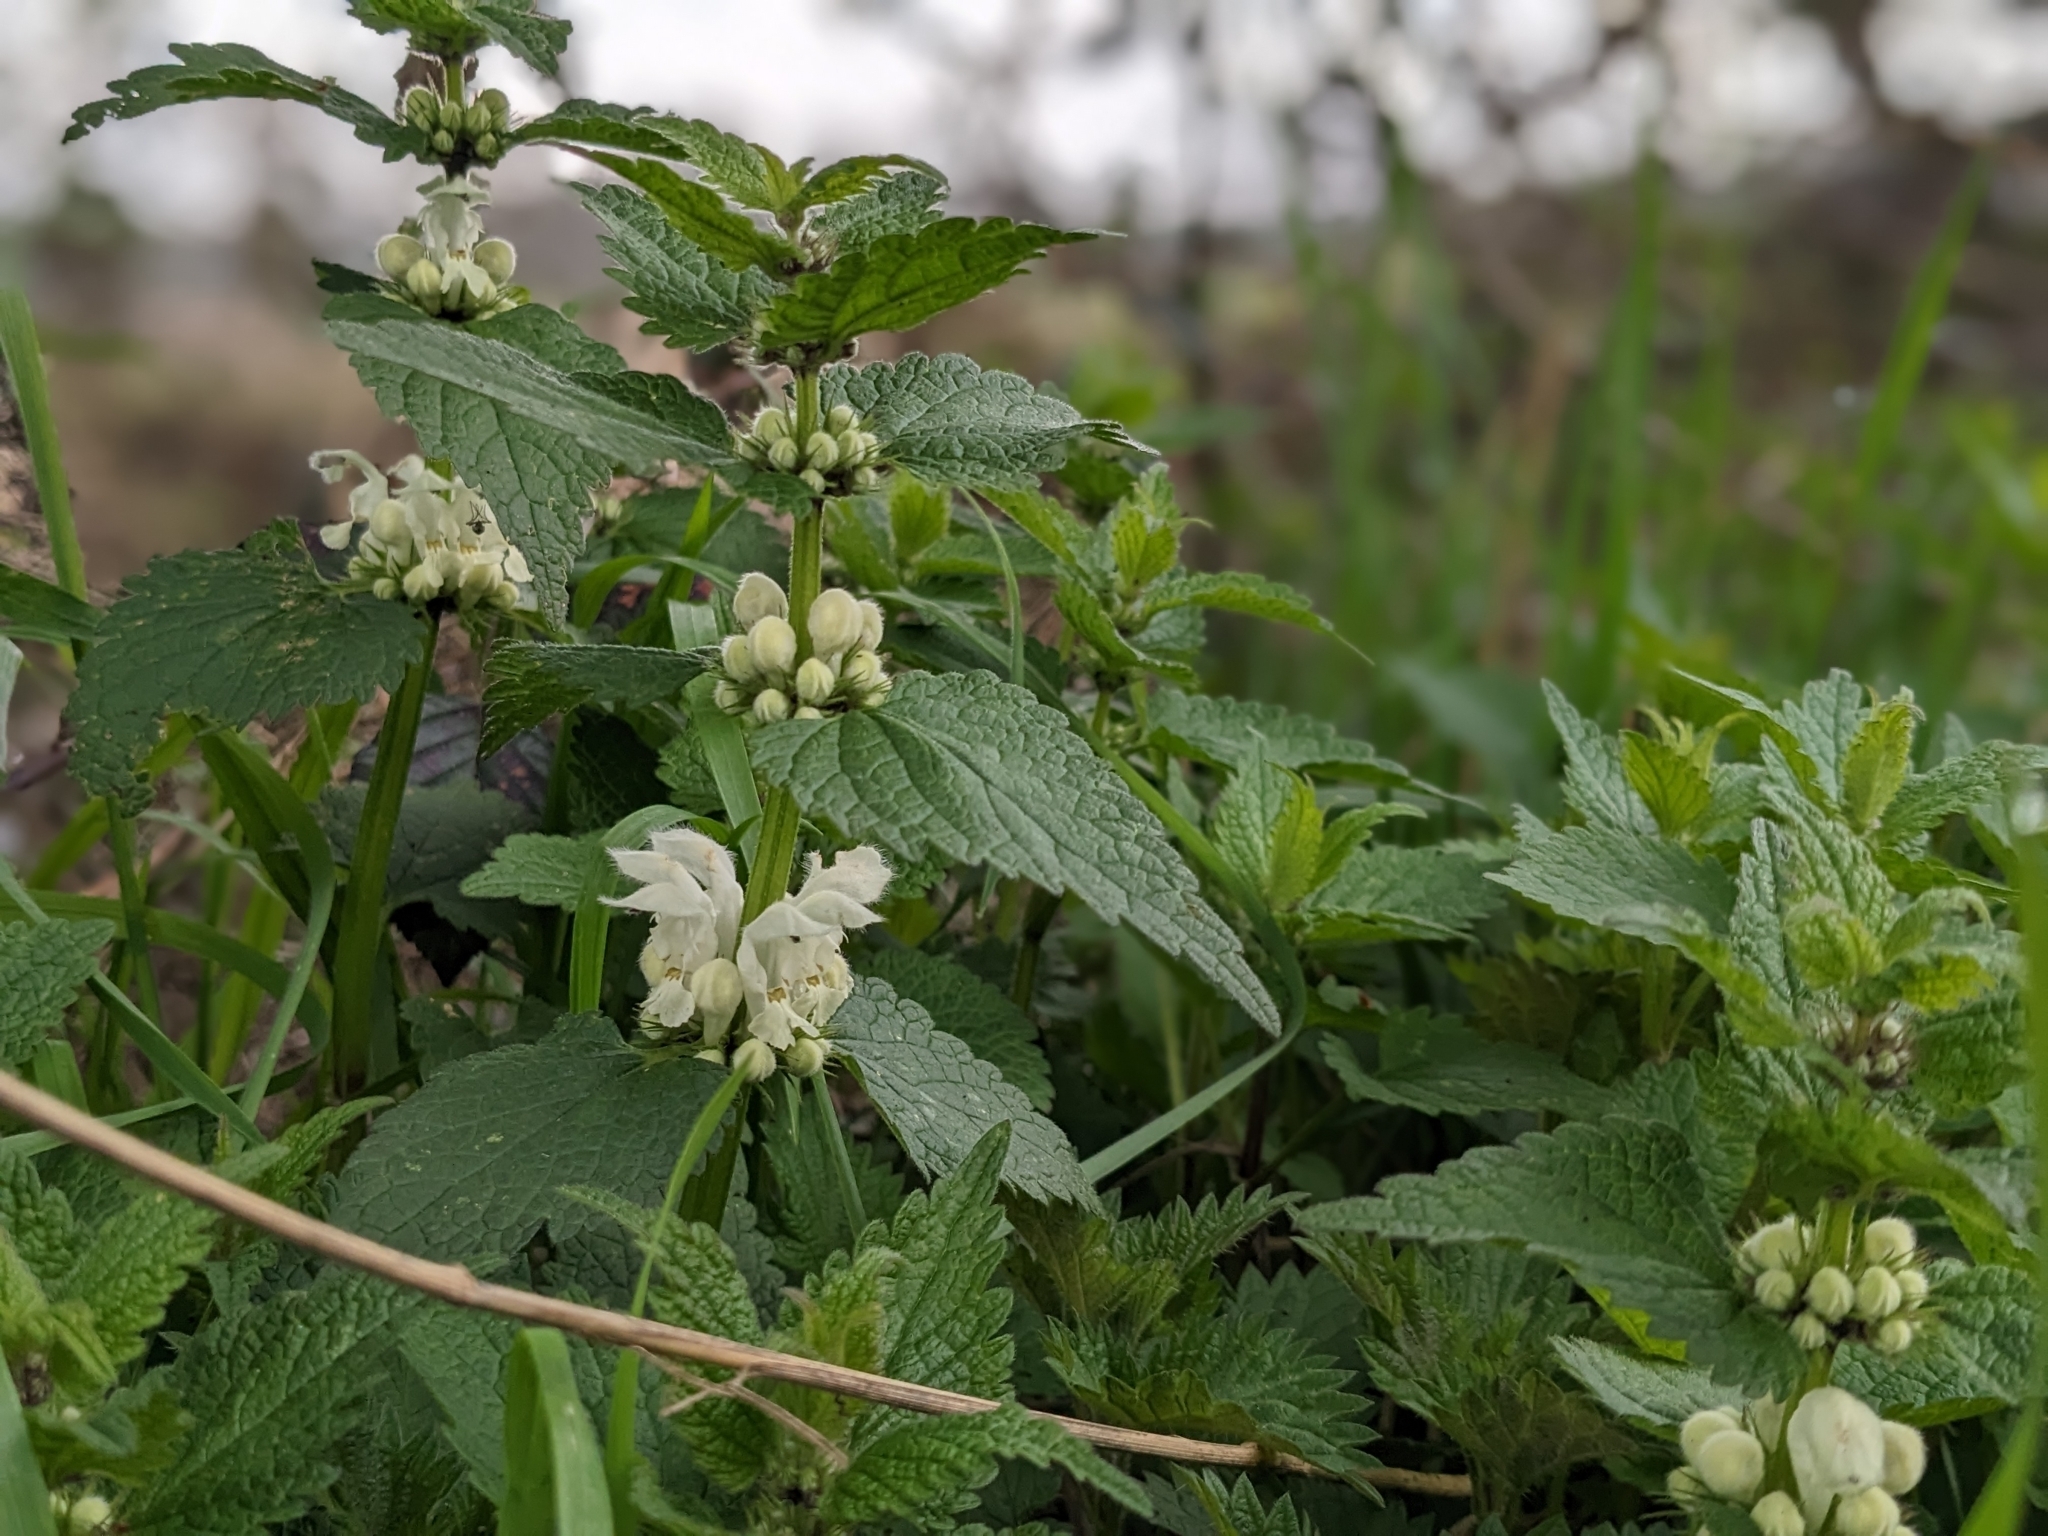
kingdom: Plantae
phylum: Tracheophyta
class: Magnoliopsida
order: Lamiales
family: Lamiaceae
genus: Lamium
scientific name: Lamium album
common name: White dead-nettle
